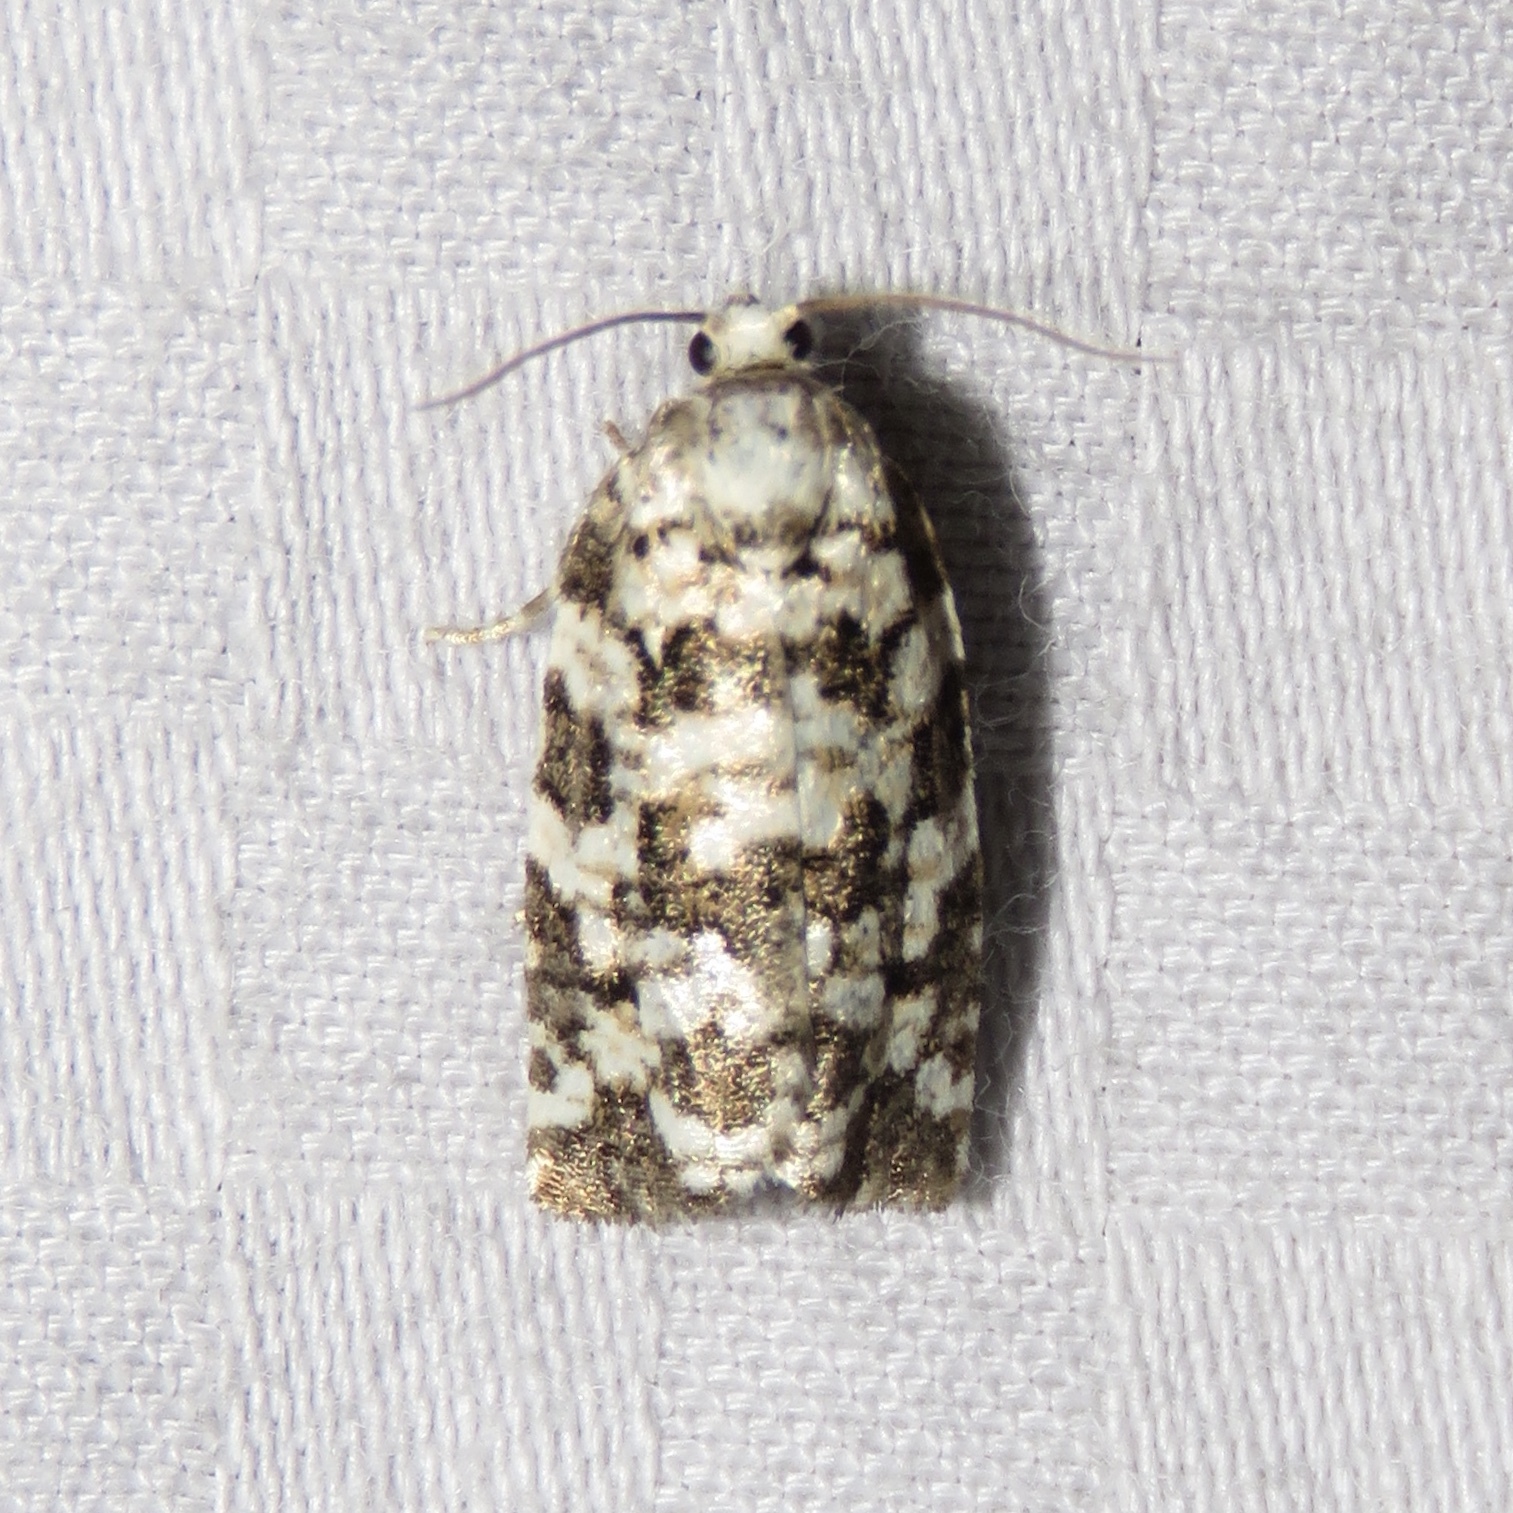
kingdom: Animalia
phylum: Arthropoda
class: Insecta
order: Lepidoptera
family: Tortricidae
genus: Archips
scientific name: Archips packardiana
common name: Spring spruce needle moth
